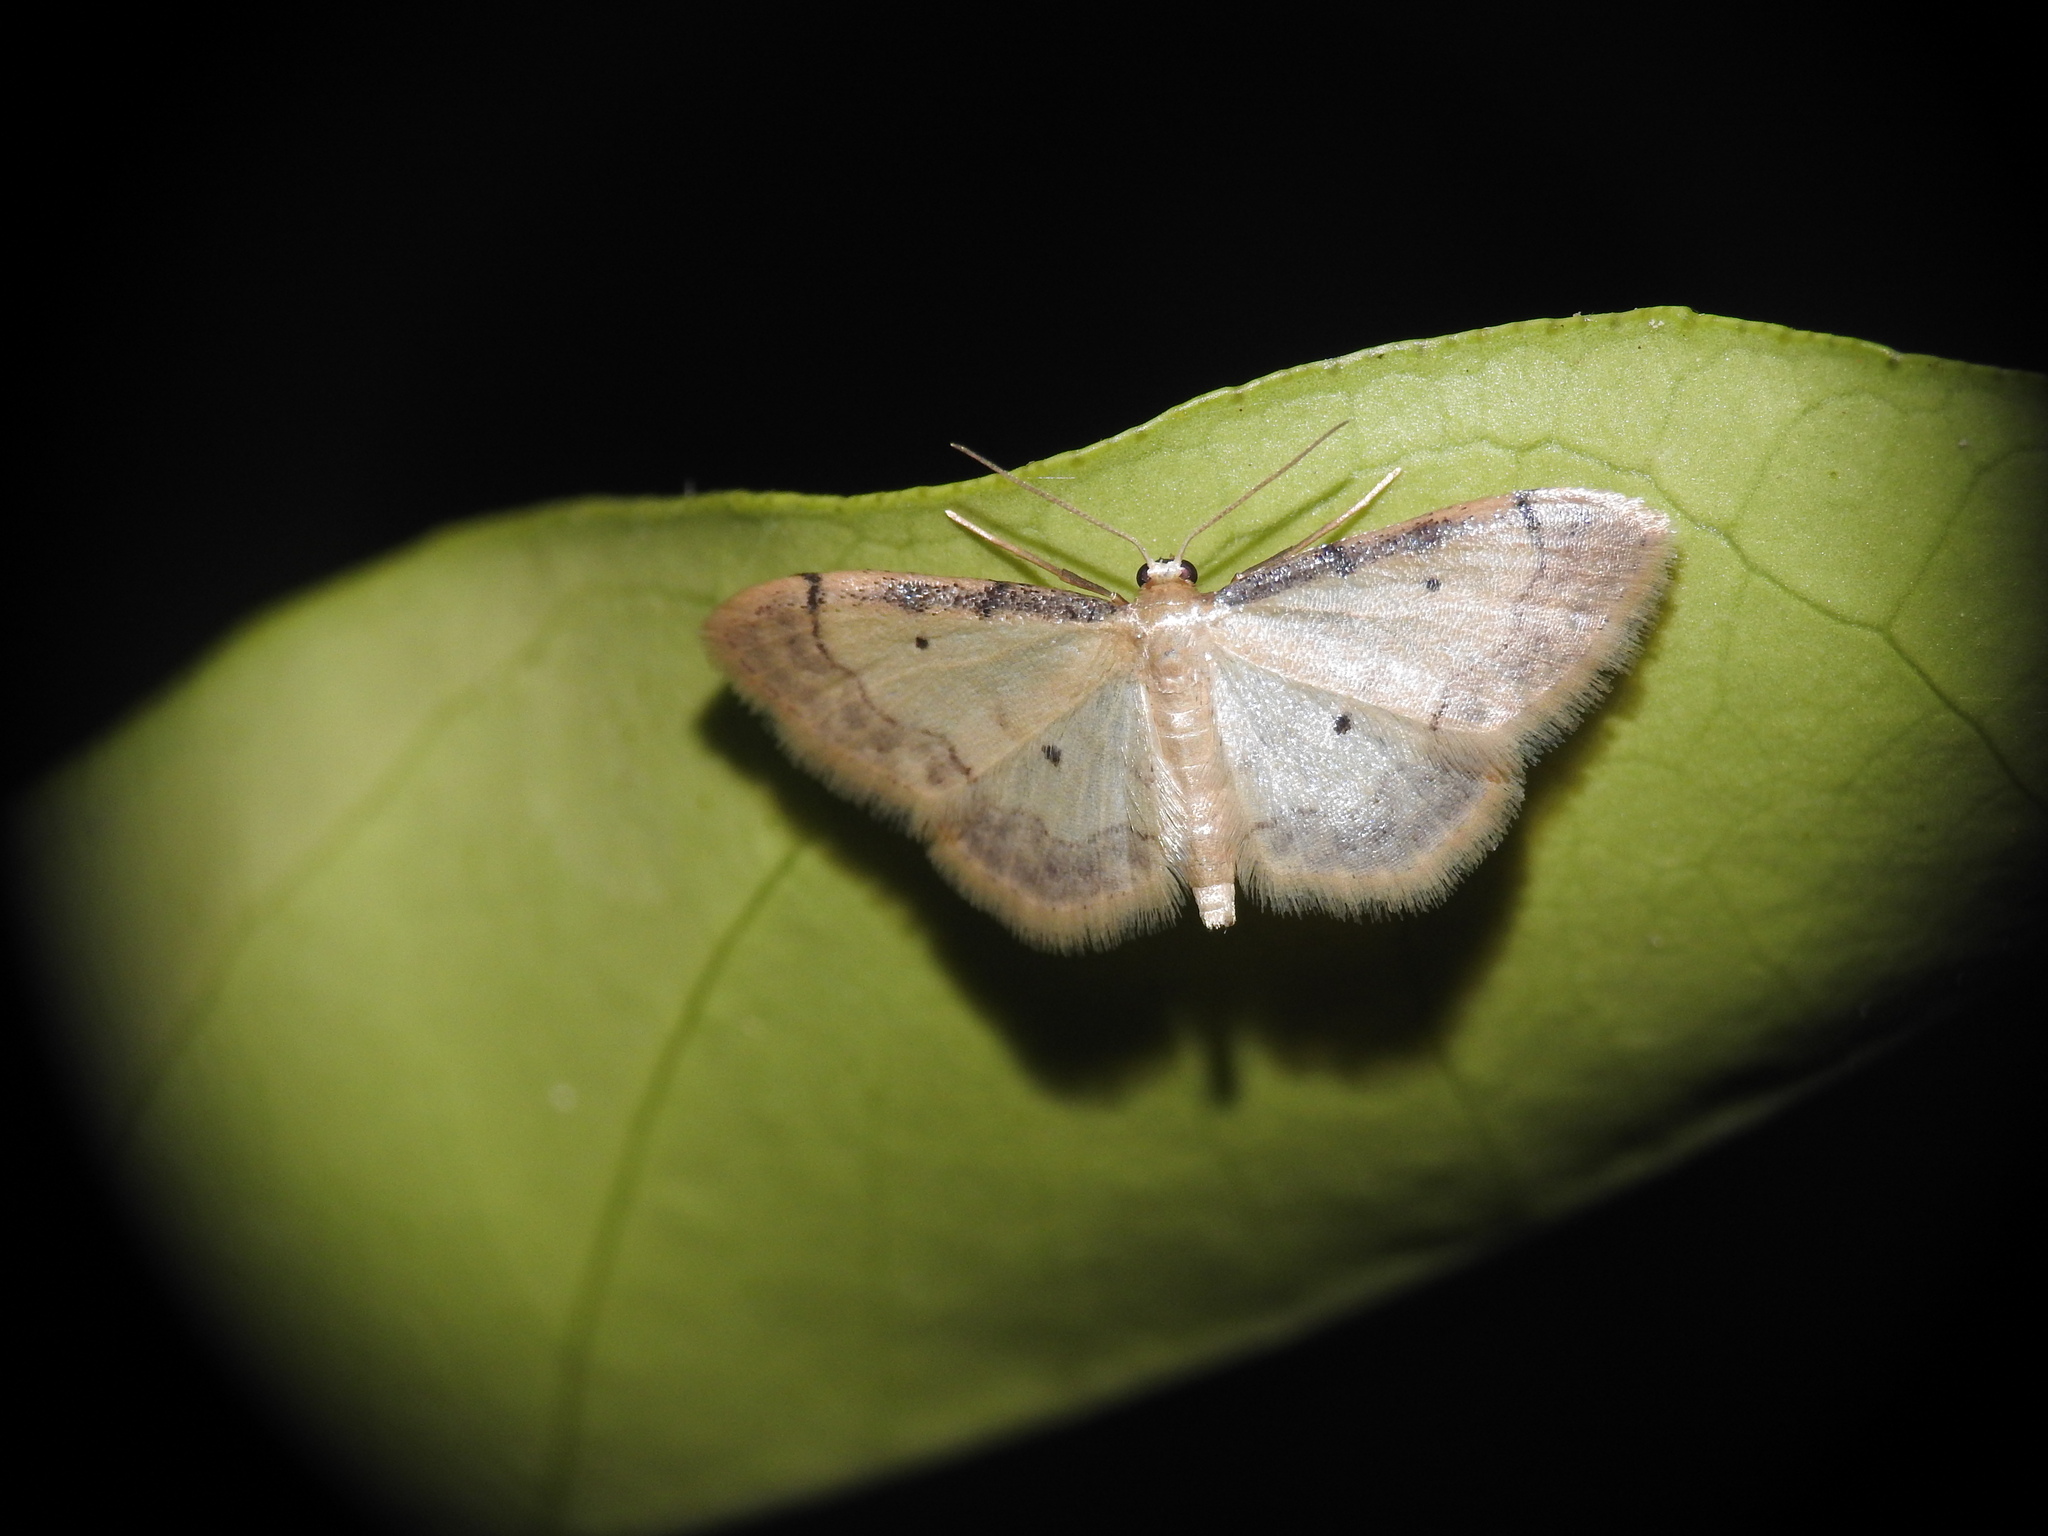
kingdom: Animalia
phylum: Arthropoda
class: Insecta
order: Lepidoptera
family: Geometridae
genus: Idaea
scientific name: Idaea politaria
